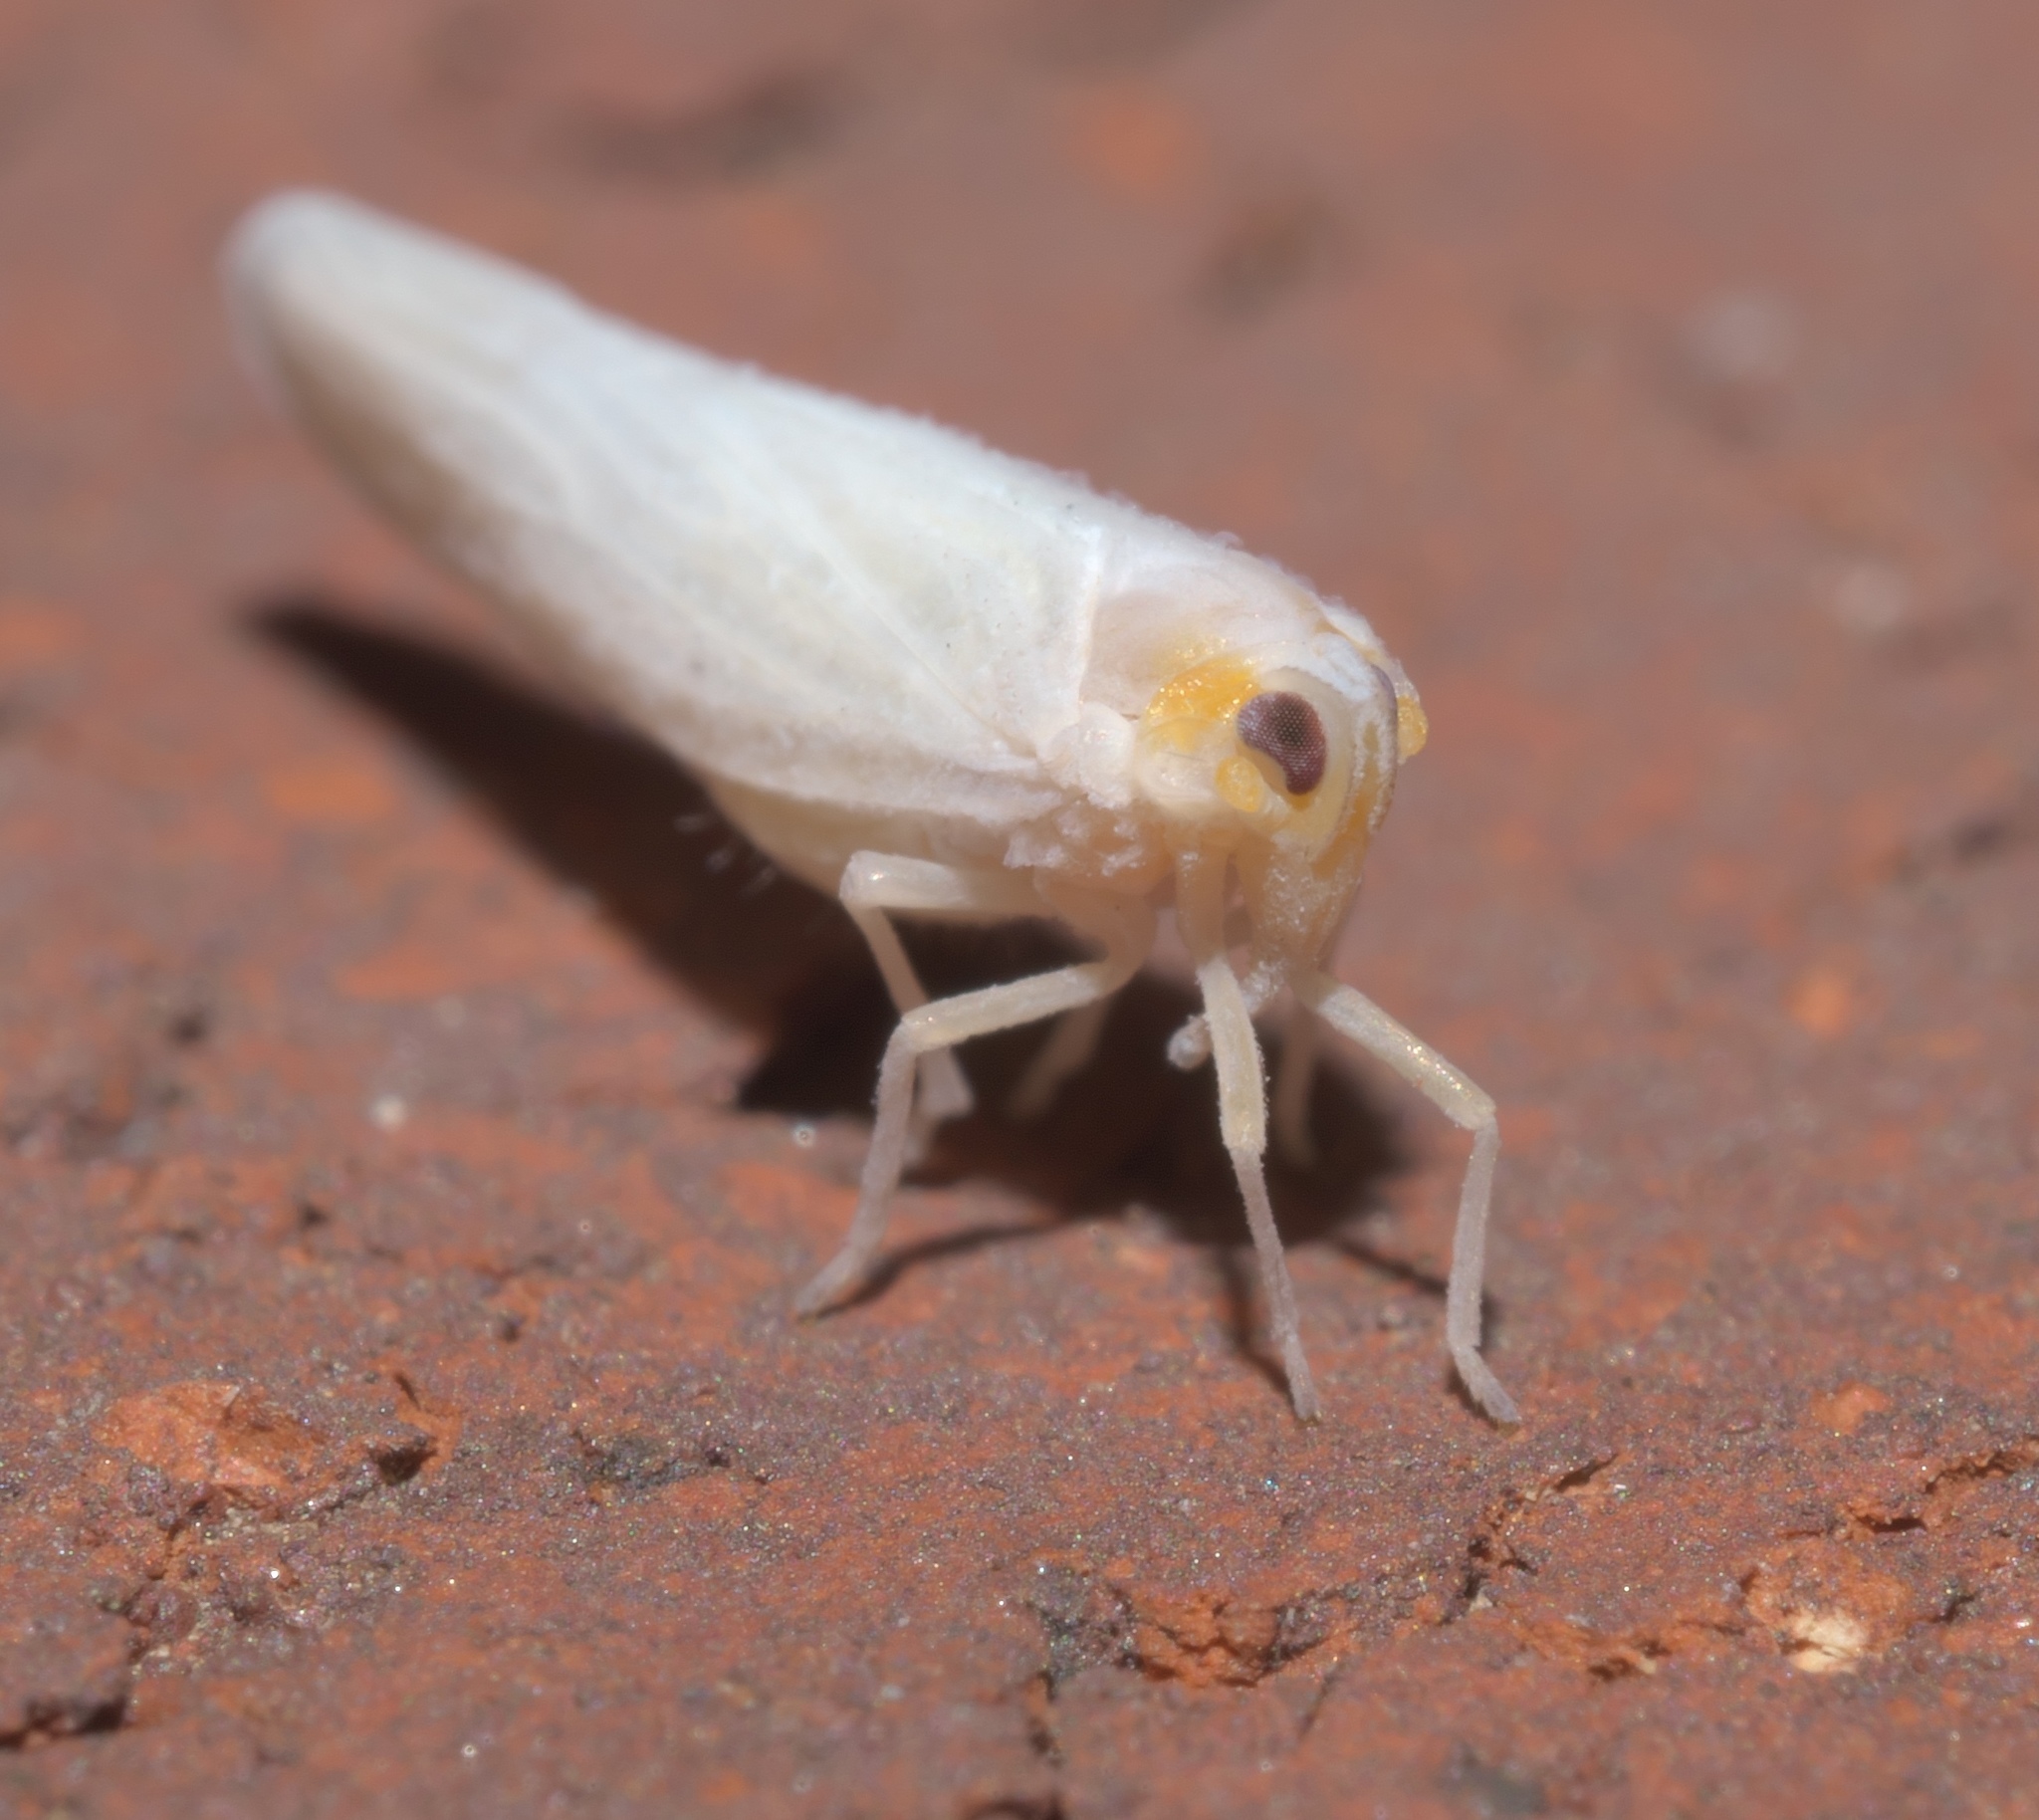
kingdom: Animalia
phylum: Arthropoda
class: Insecta
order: Hemiptera
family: Derbidae
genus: Neocenchrea
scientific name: Neocenchrea heidemanni
